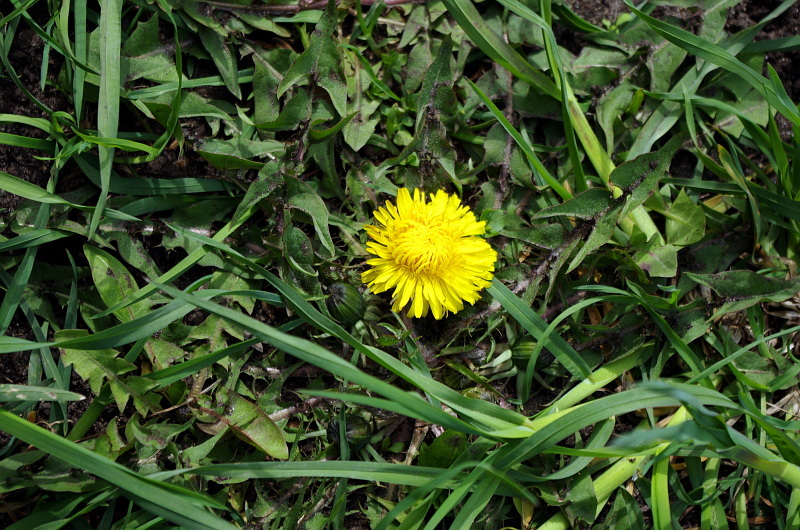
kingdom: Plantae
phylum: Tracheophyta
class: Magnoliopsida
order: Asterales
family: Asteraceae
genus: Taraxacum
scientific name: Taraxacum officinale
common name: Common dandelion
